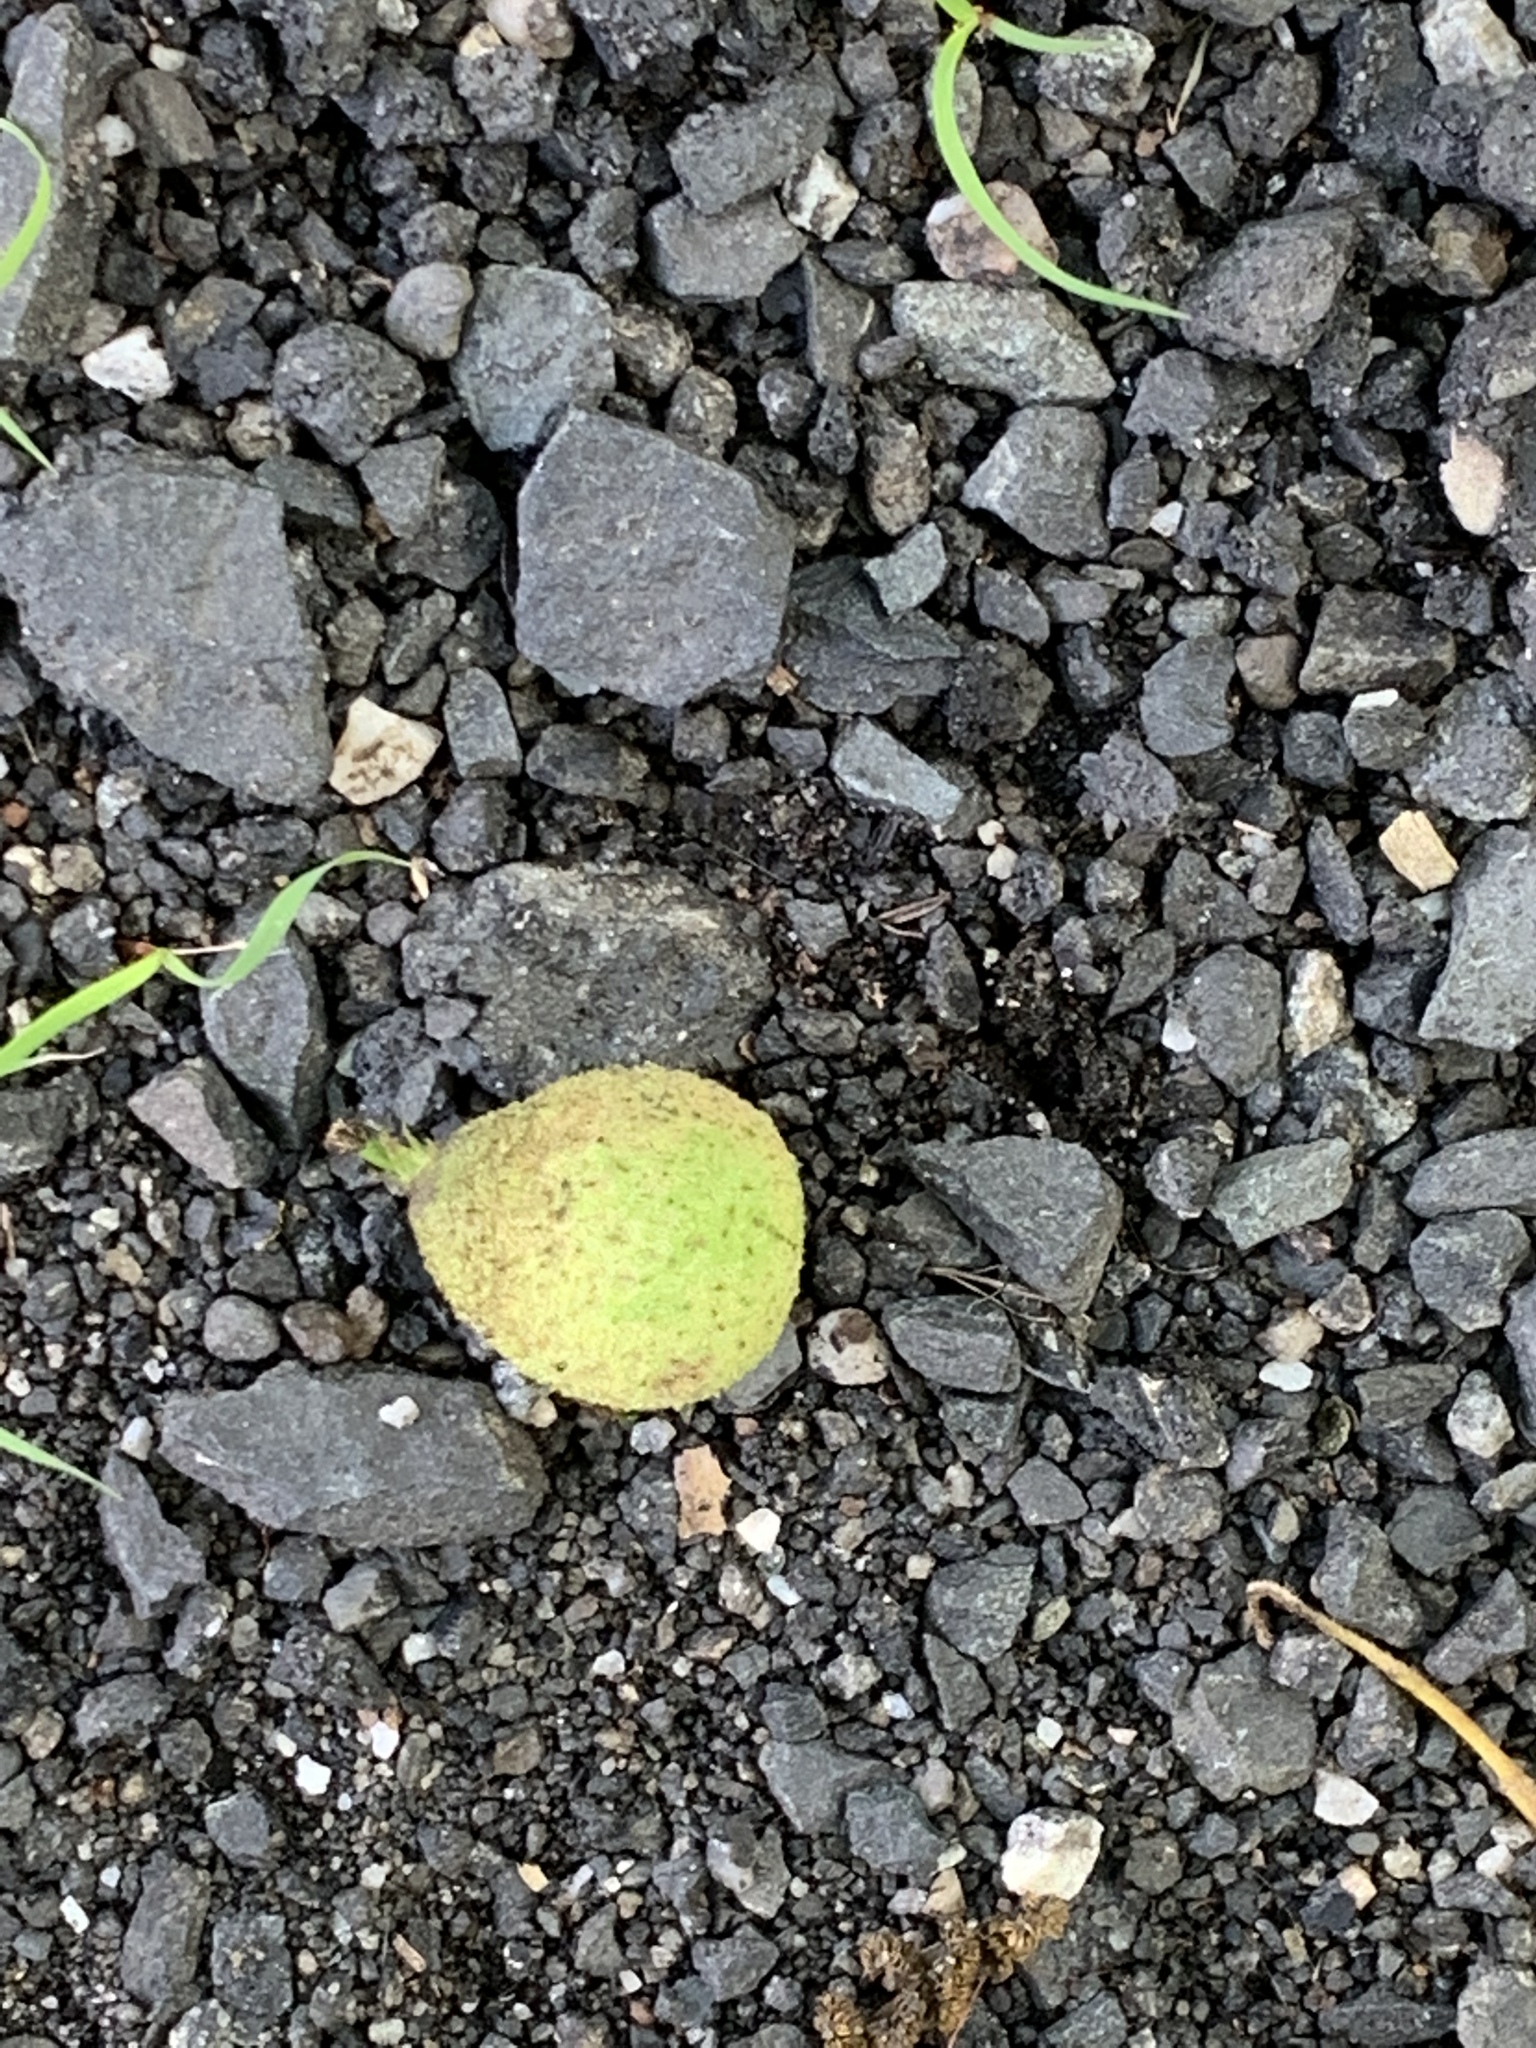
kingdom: Plantae
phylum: Tracheophyta
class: Magnoliopsida
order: Fagales
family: Juglandaceae
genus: Juglans
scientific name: Juglans nigra
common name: Black walnut
